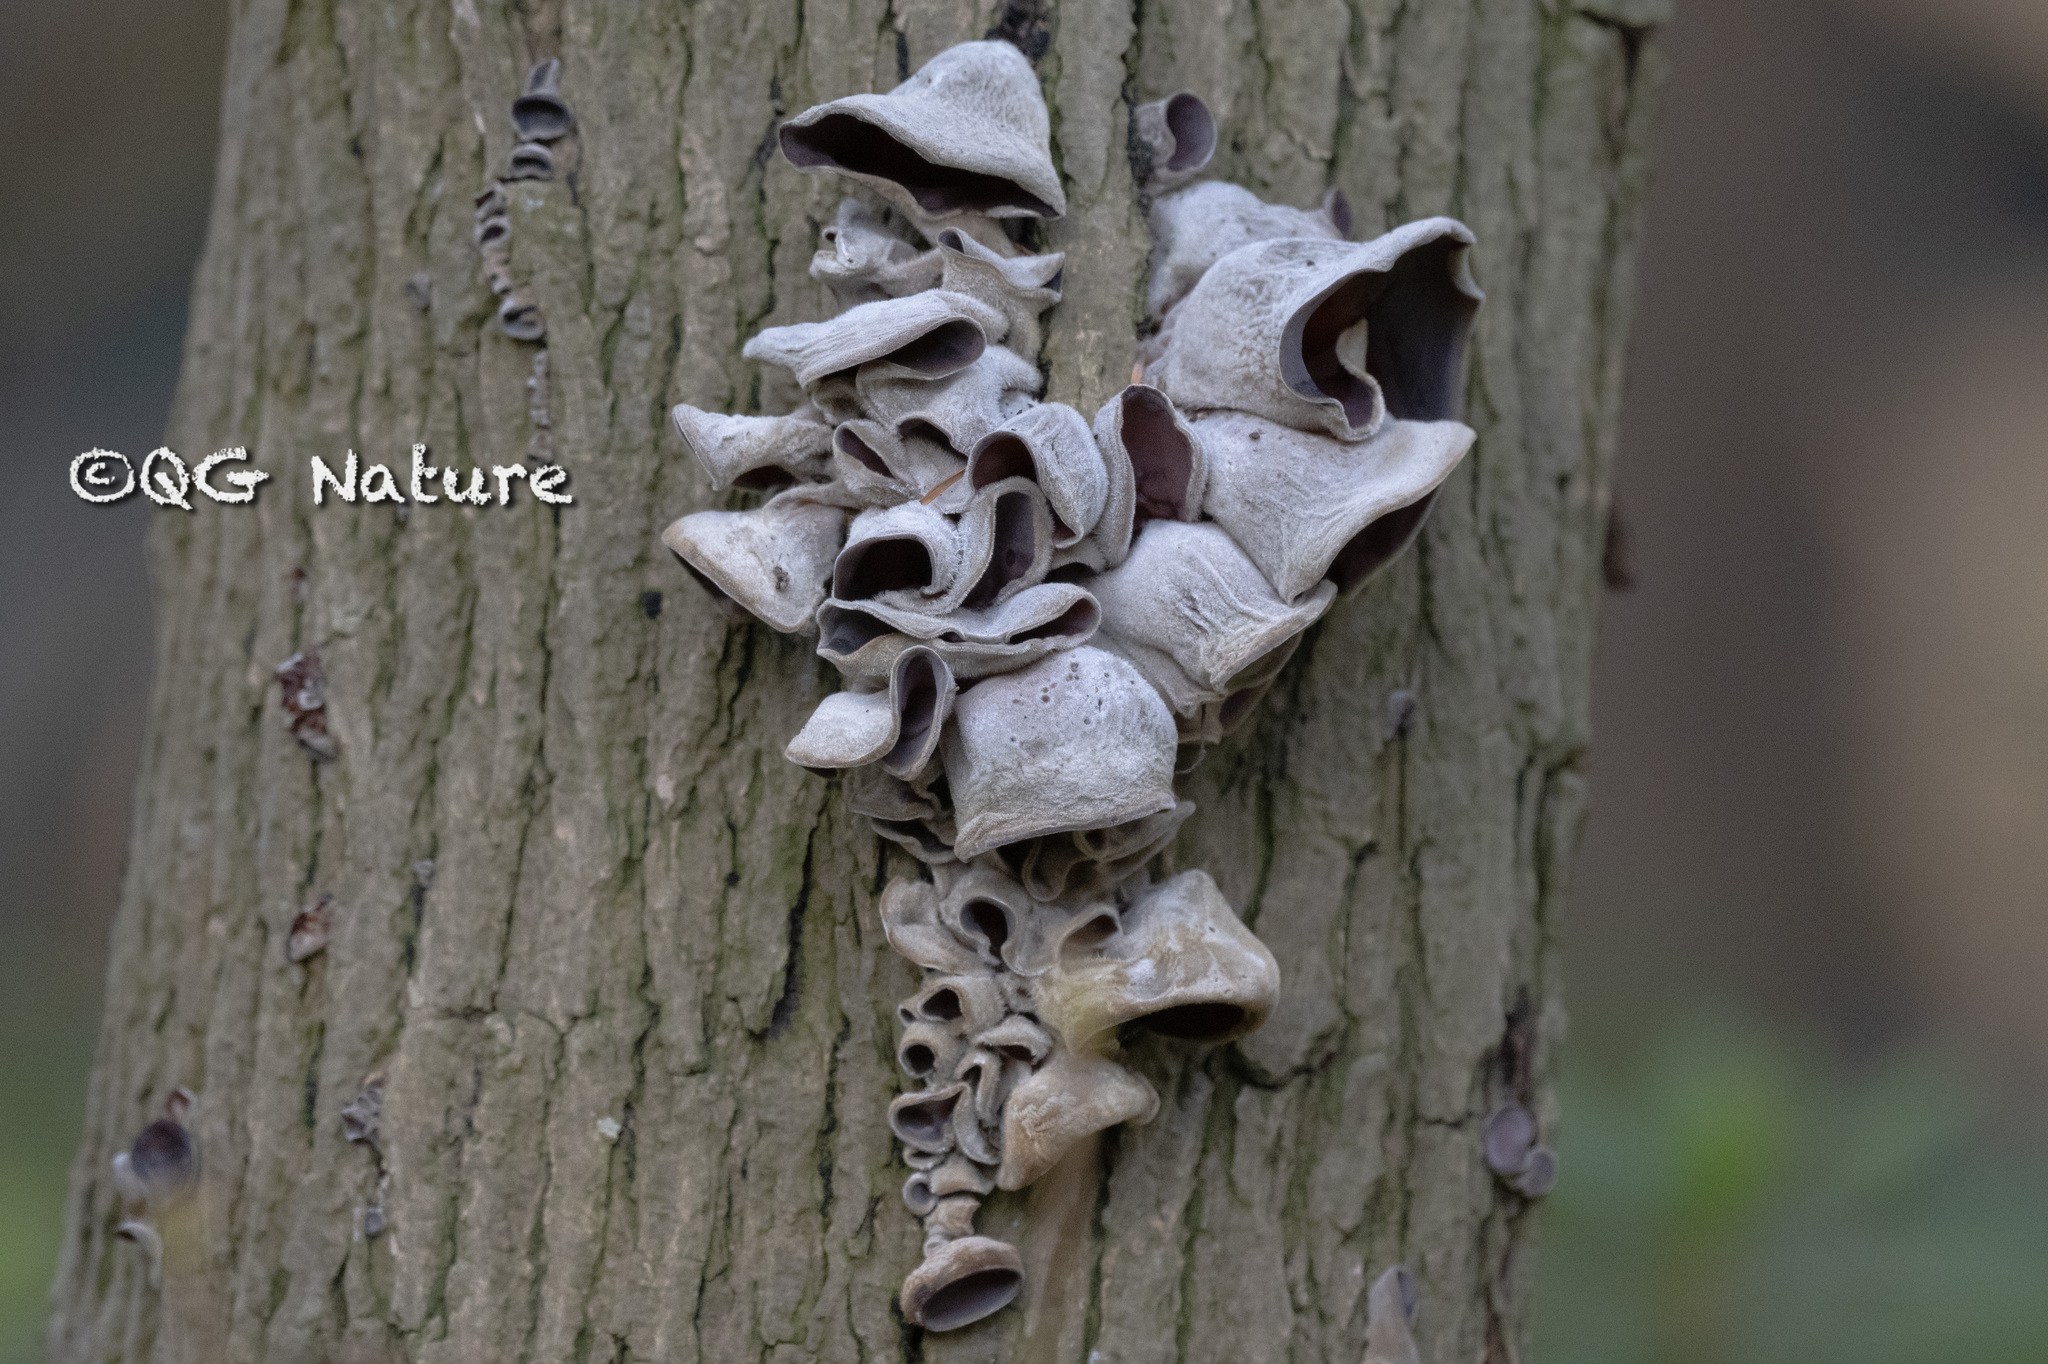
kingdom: Fungi
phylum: Basidiomycota
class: Agaricomycetes
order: Auriculariales
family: Auriculariaceae
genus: Auricularia
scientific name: Auricularia cornea
